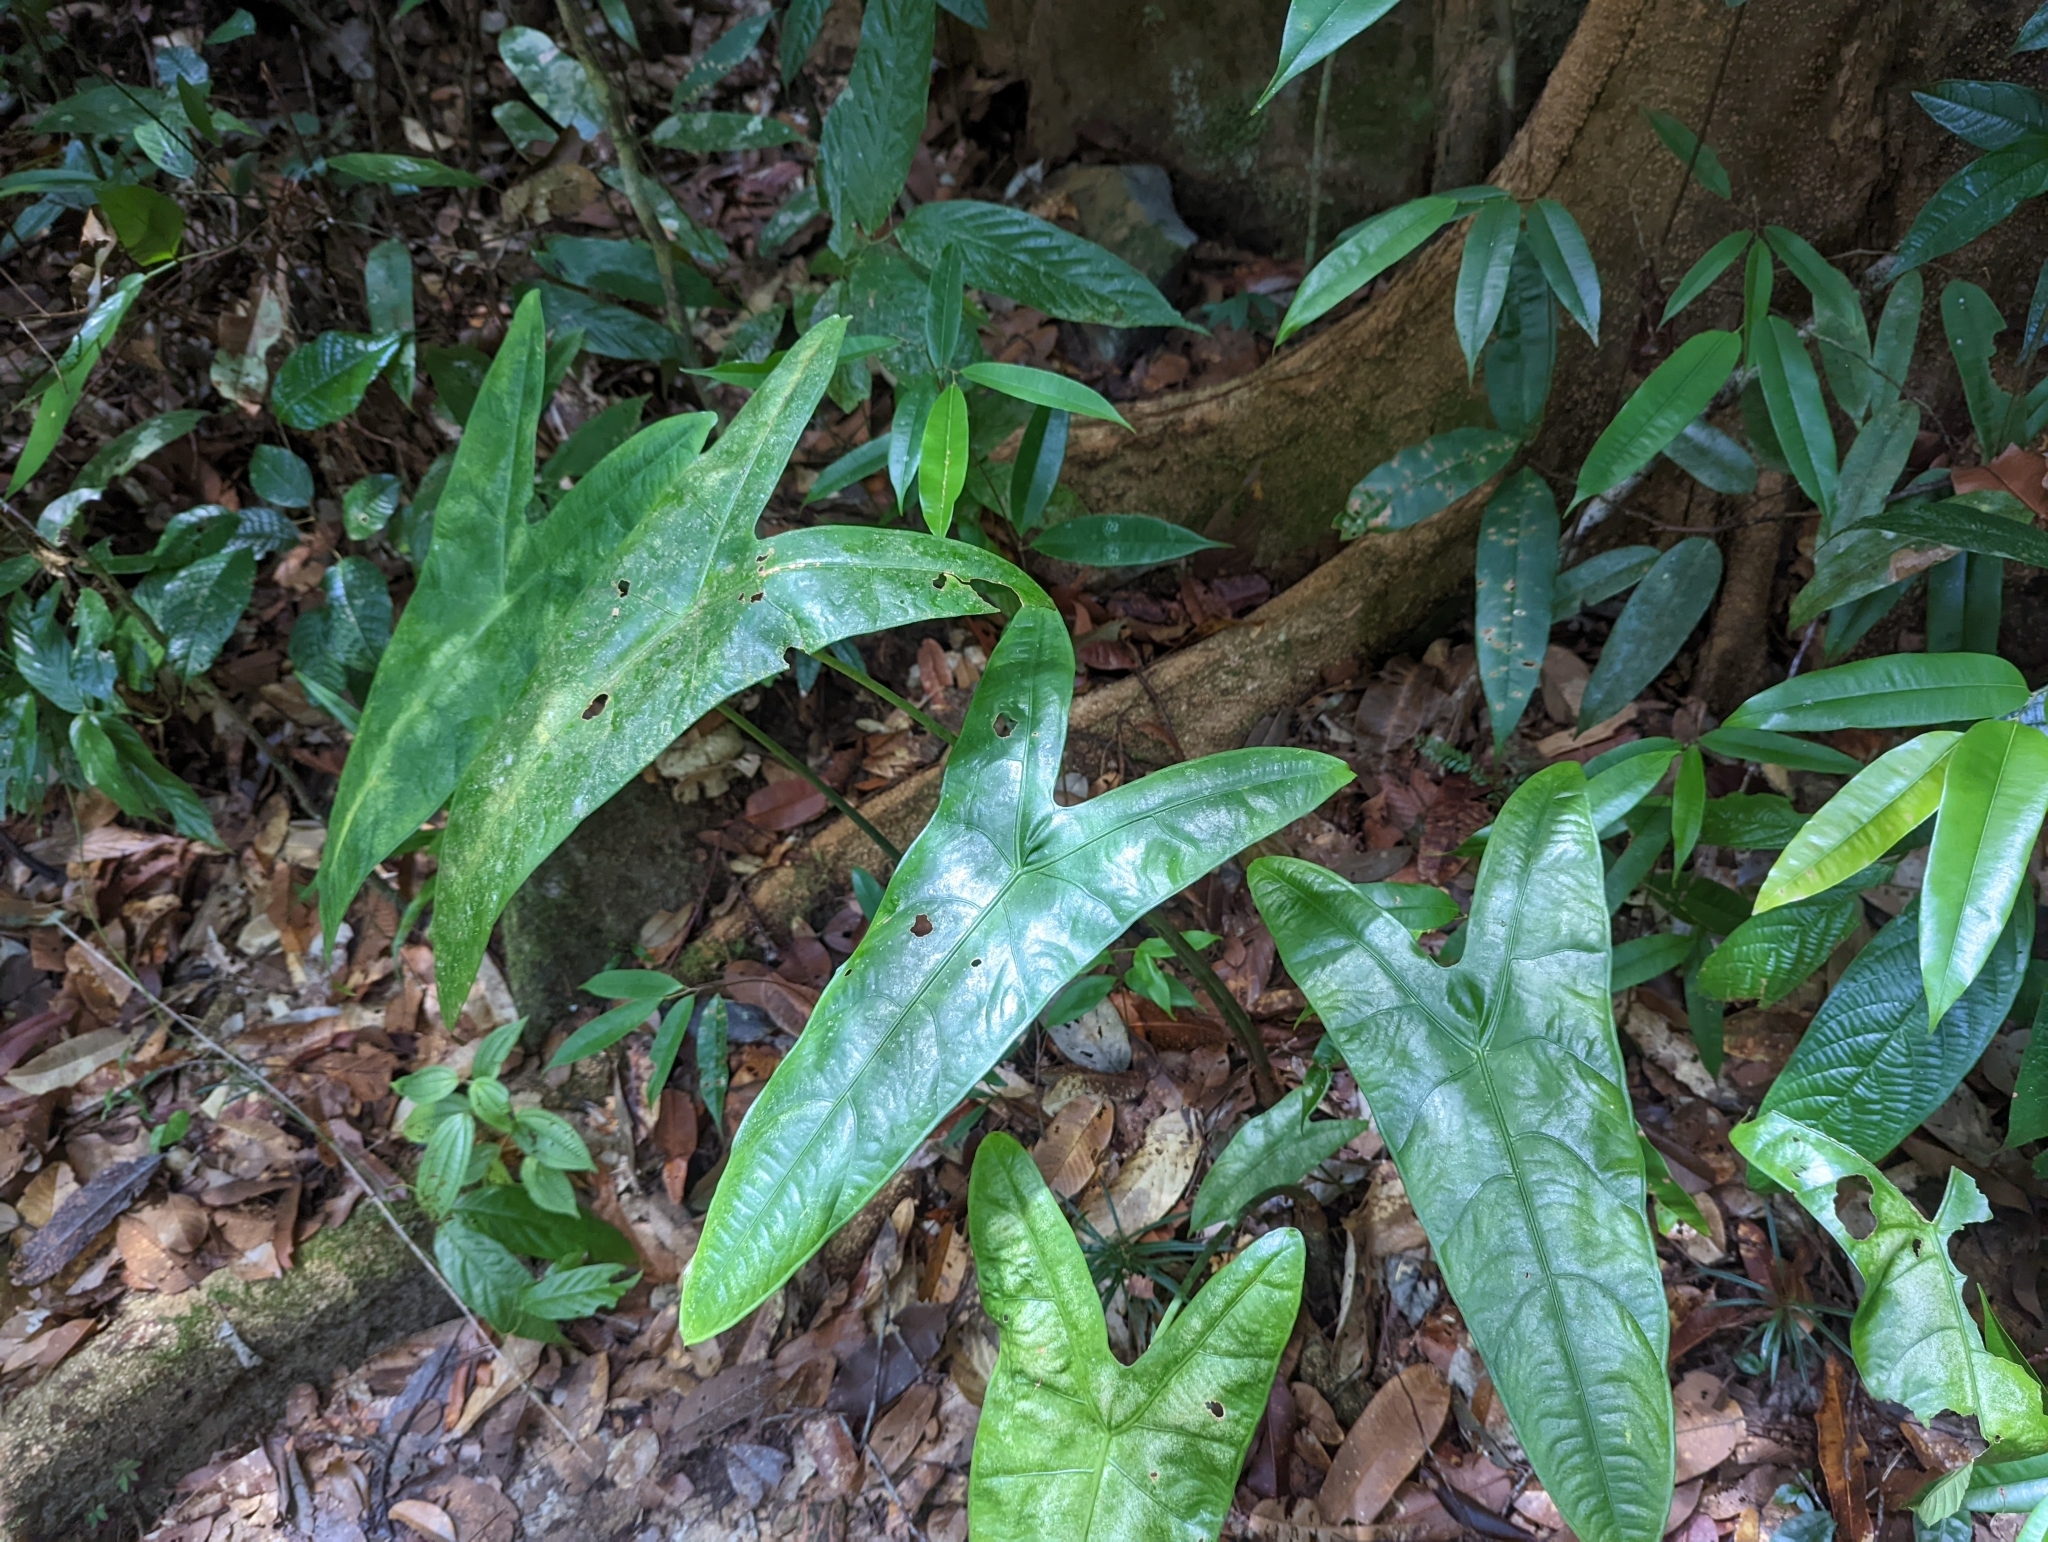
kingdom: Plantae
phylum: Tracheophyta
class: Liliopsida
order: Alismatales
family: Araceae
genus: Alocasia
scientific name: Alocasia longiloba
